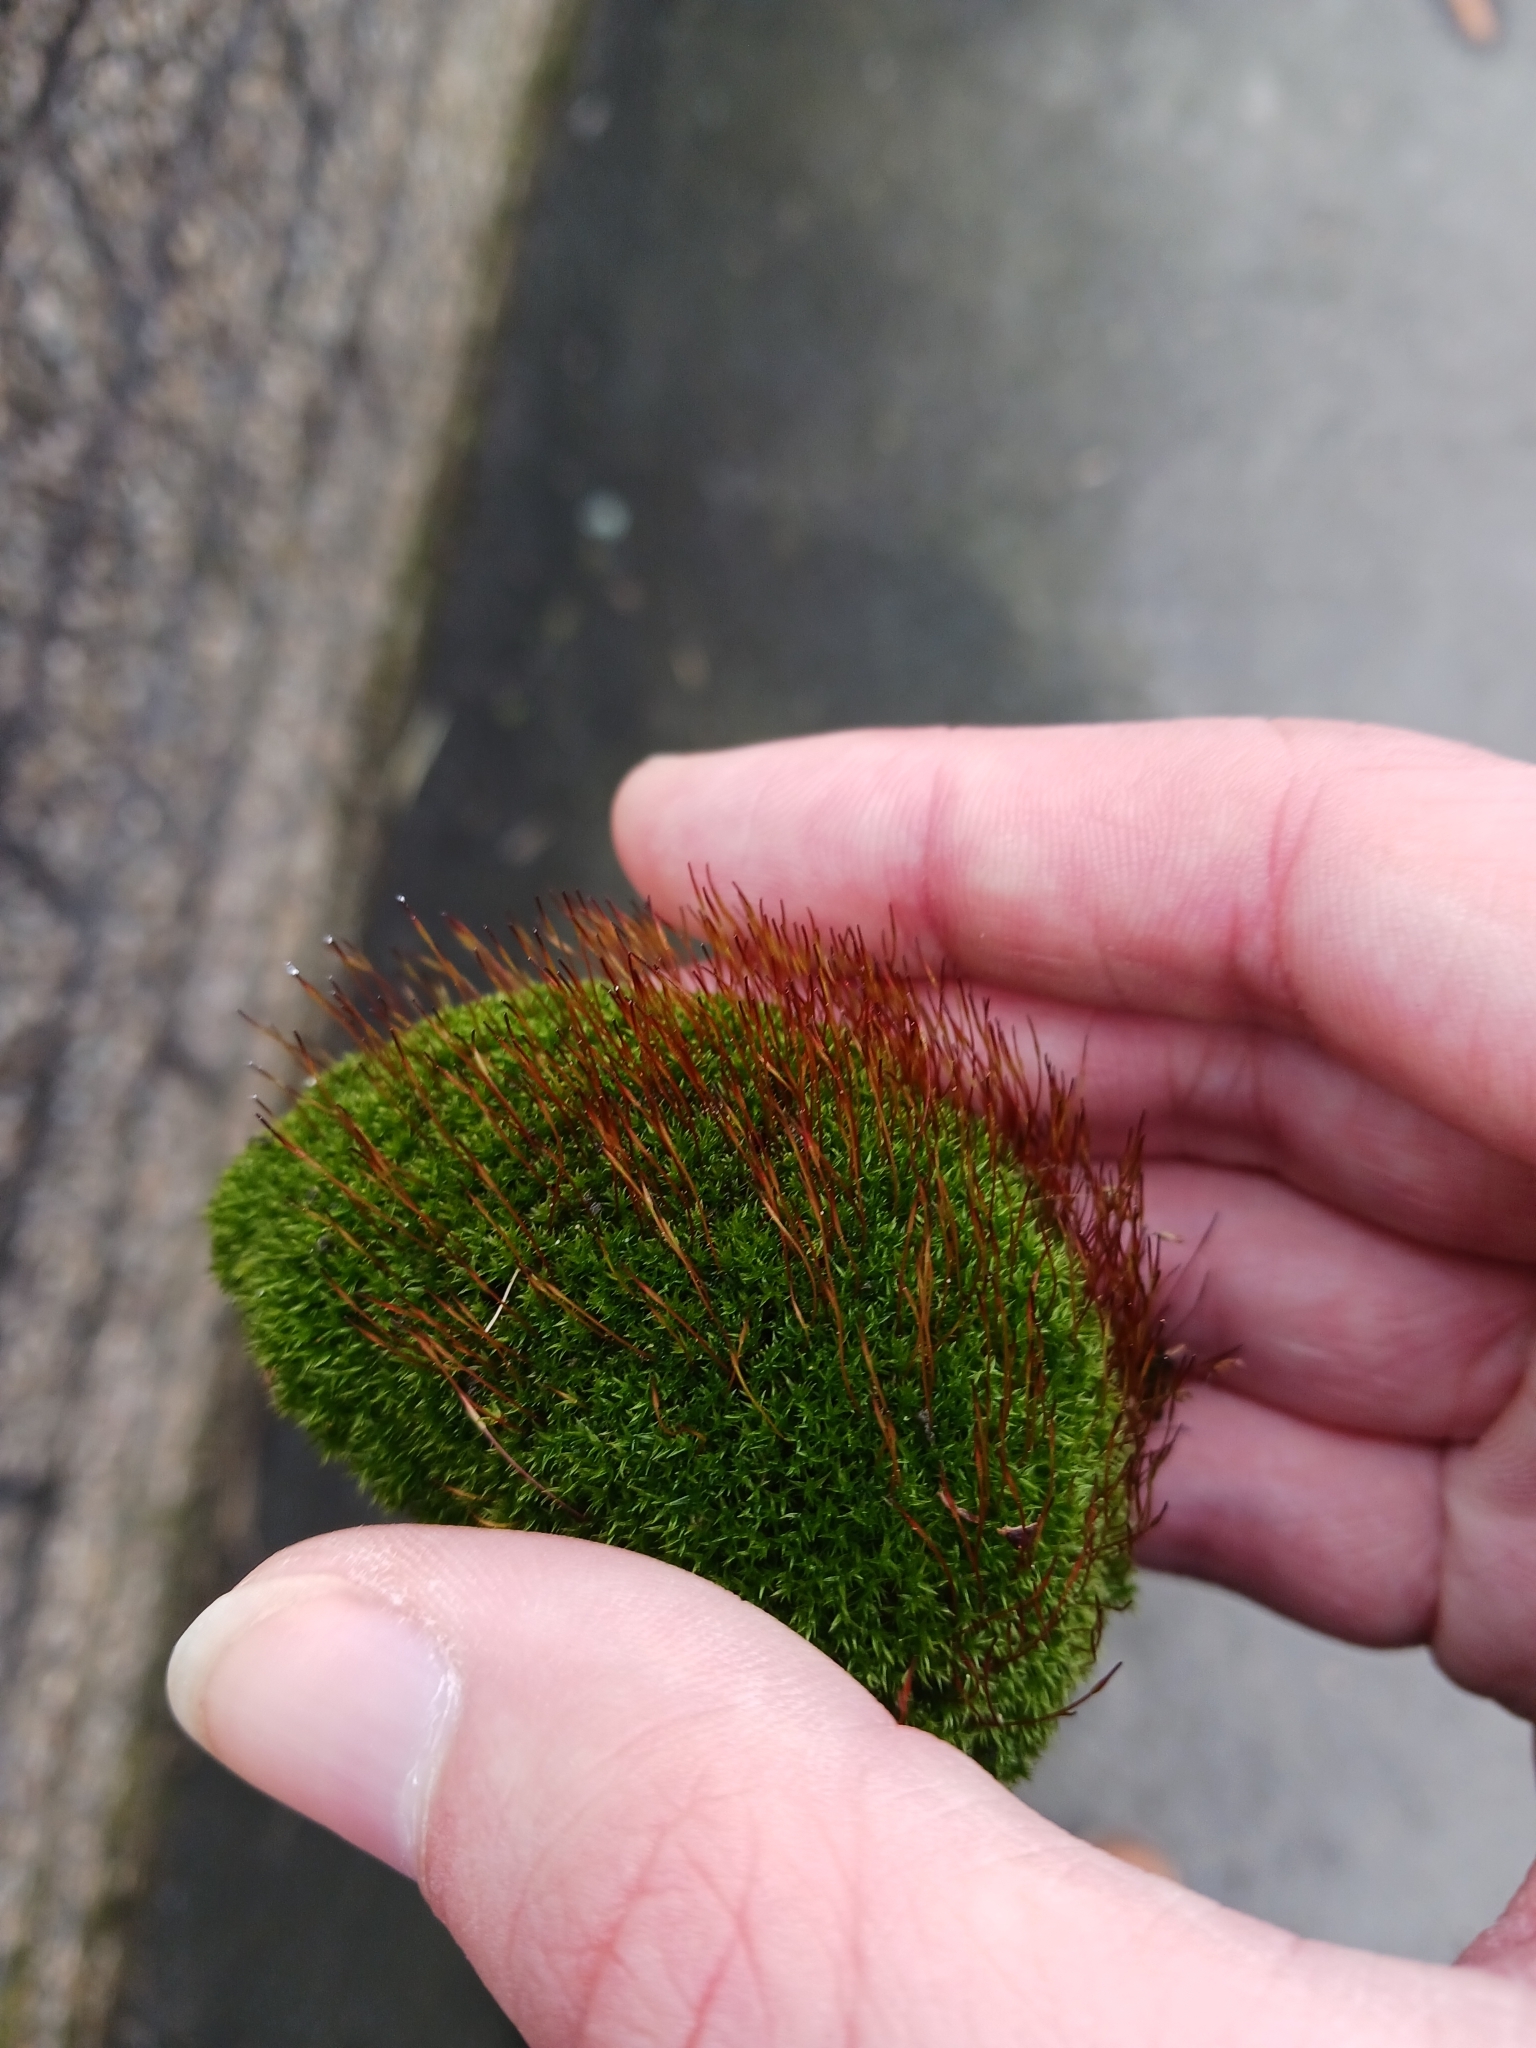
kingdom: Plantae
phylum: Bryophyta
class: Bryopsida
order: Dicranales
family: Ditrichaceae
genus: Ceratodon
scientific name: Ceratodon purpureus
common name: Redshank
